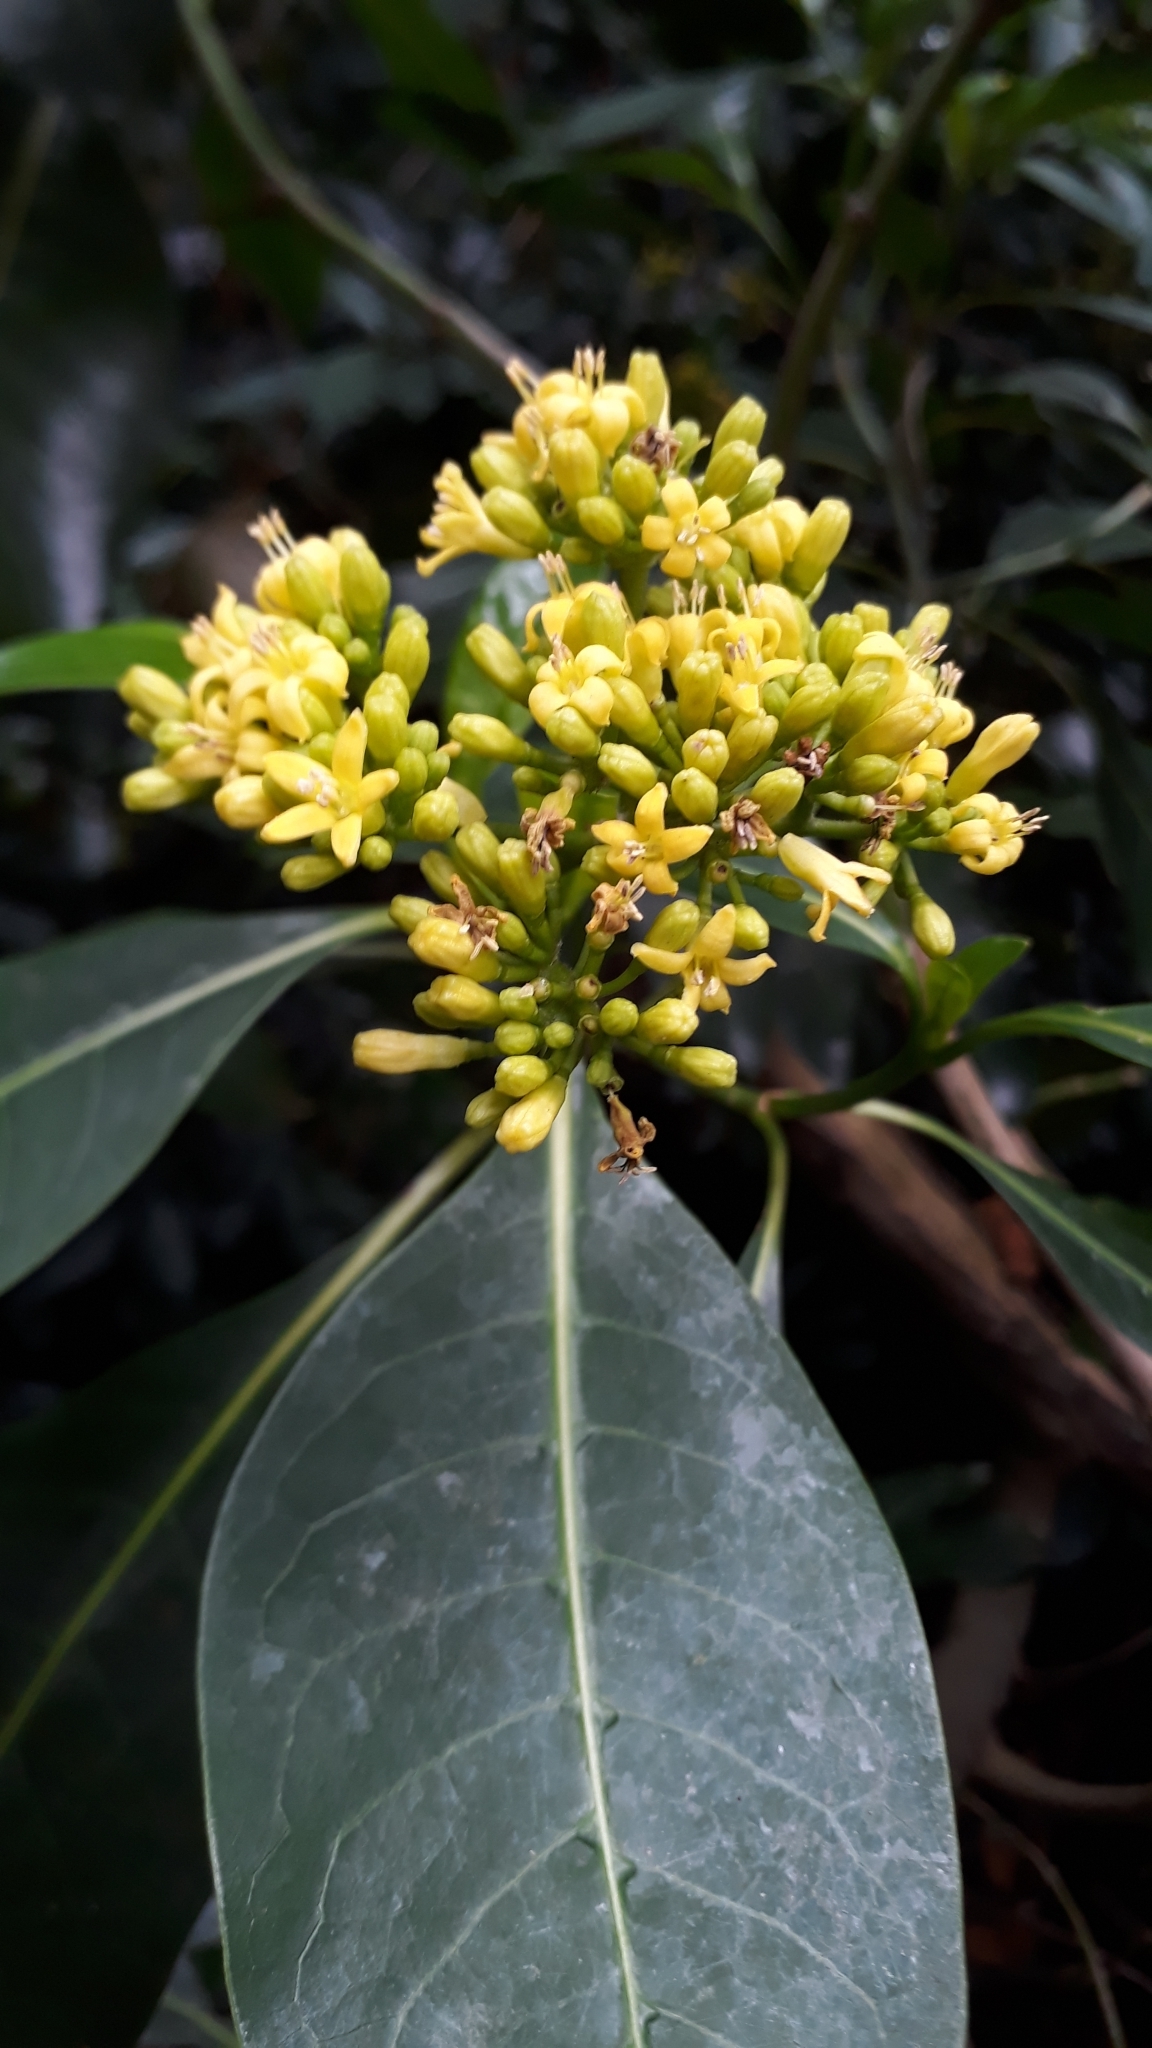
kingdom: Plantae
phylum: Tracheophyta
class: Magnoliopsida
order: Gentianales
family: Rubiaceae
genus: Psychotria
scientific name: Psychotria capensis
